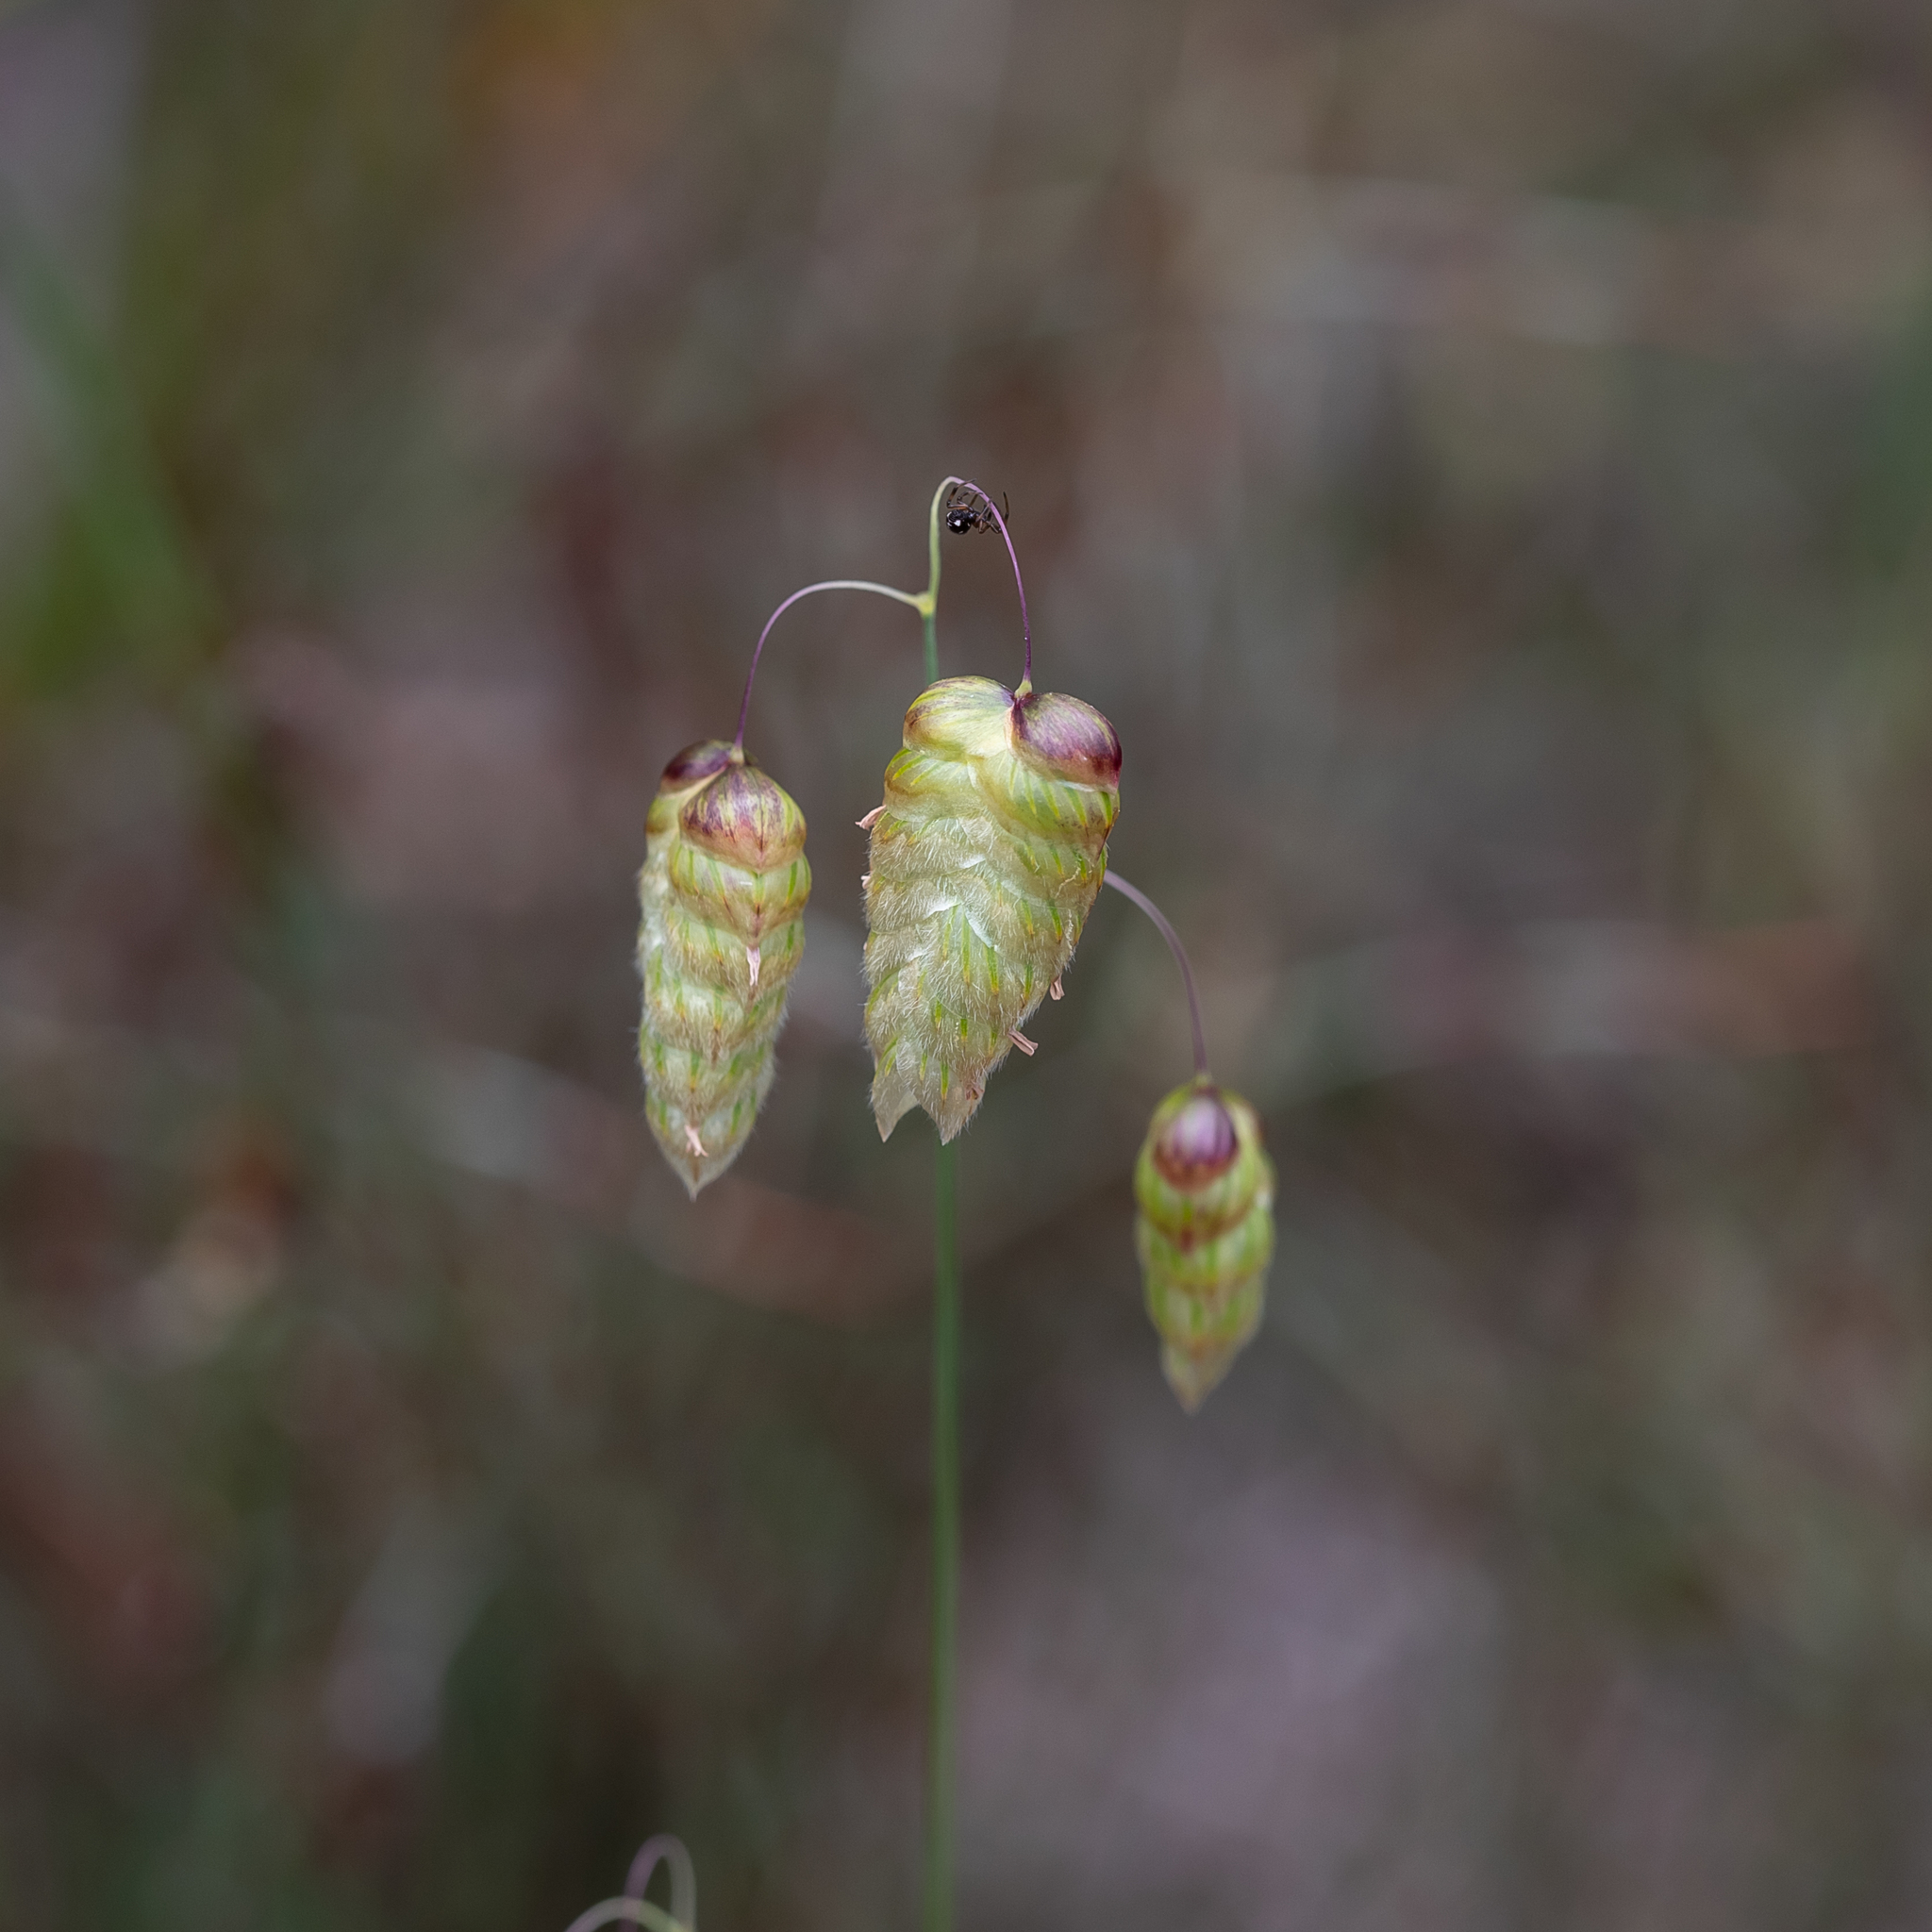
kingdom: Plantae
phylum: Tracheophyta
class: Liliopsida
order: Poales
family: Poaceae
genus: Briza
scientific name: Briza maxima
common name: Big quakinggrass
